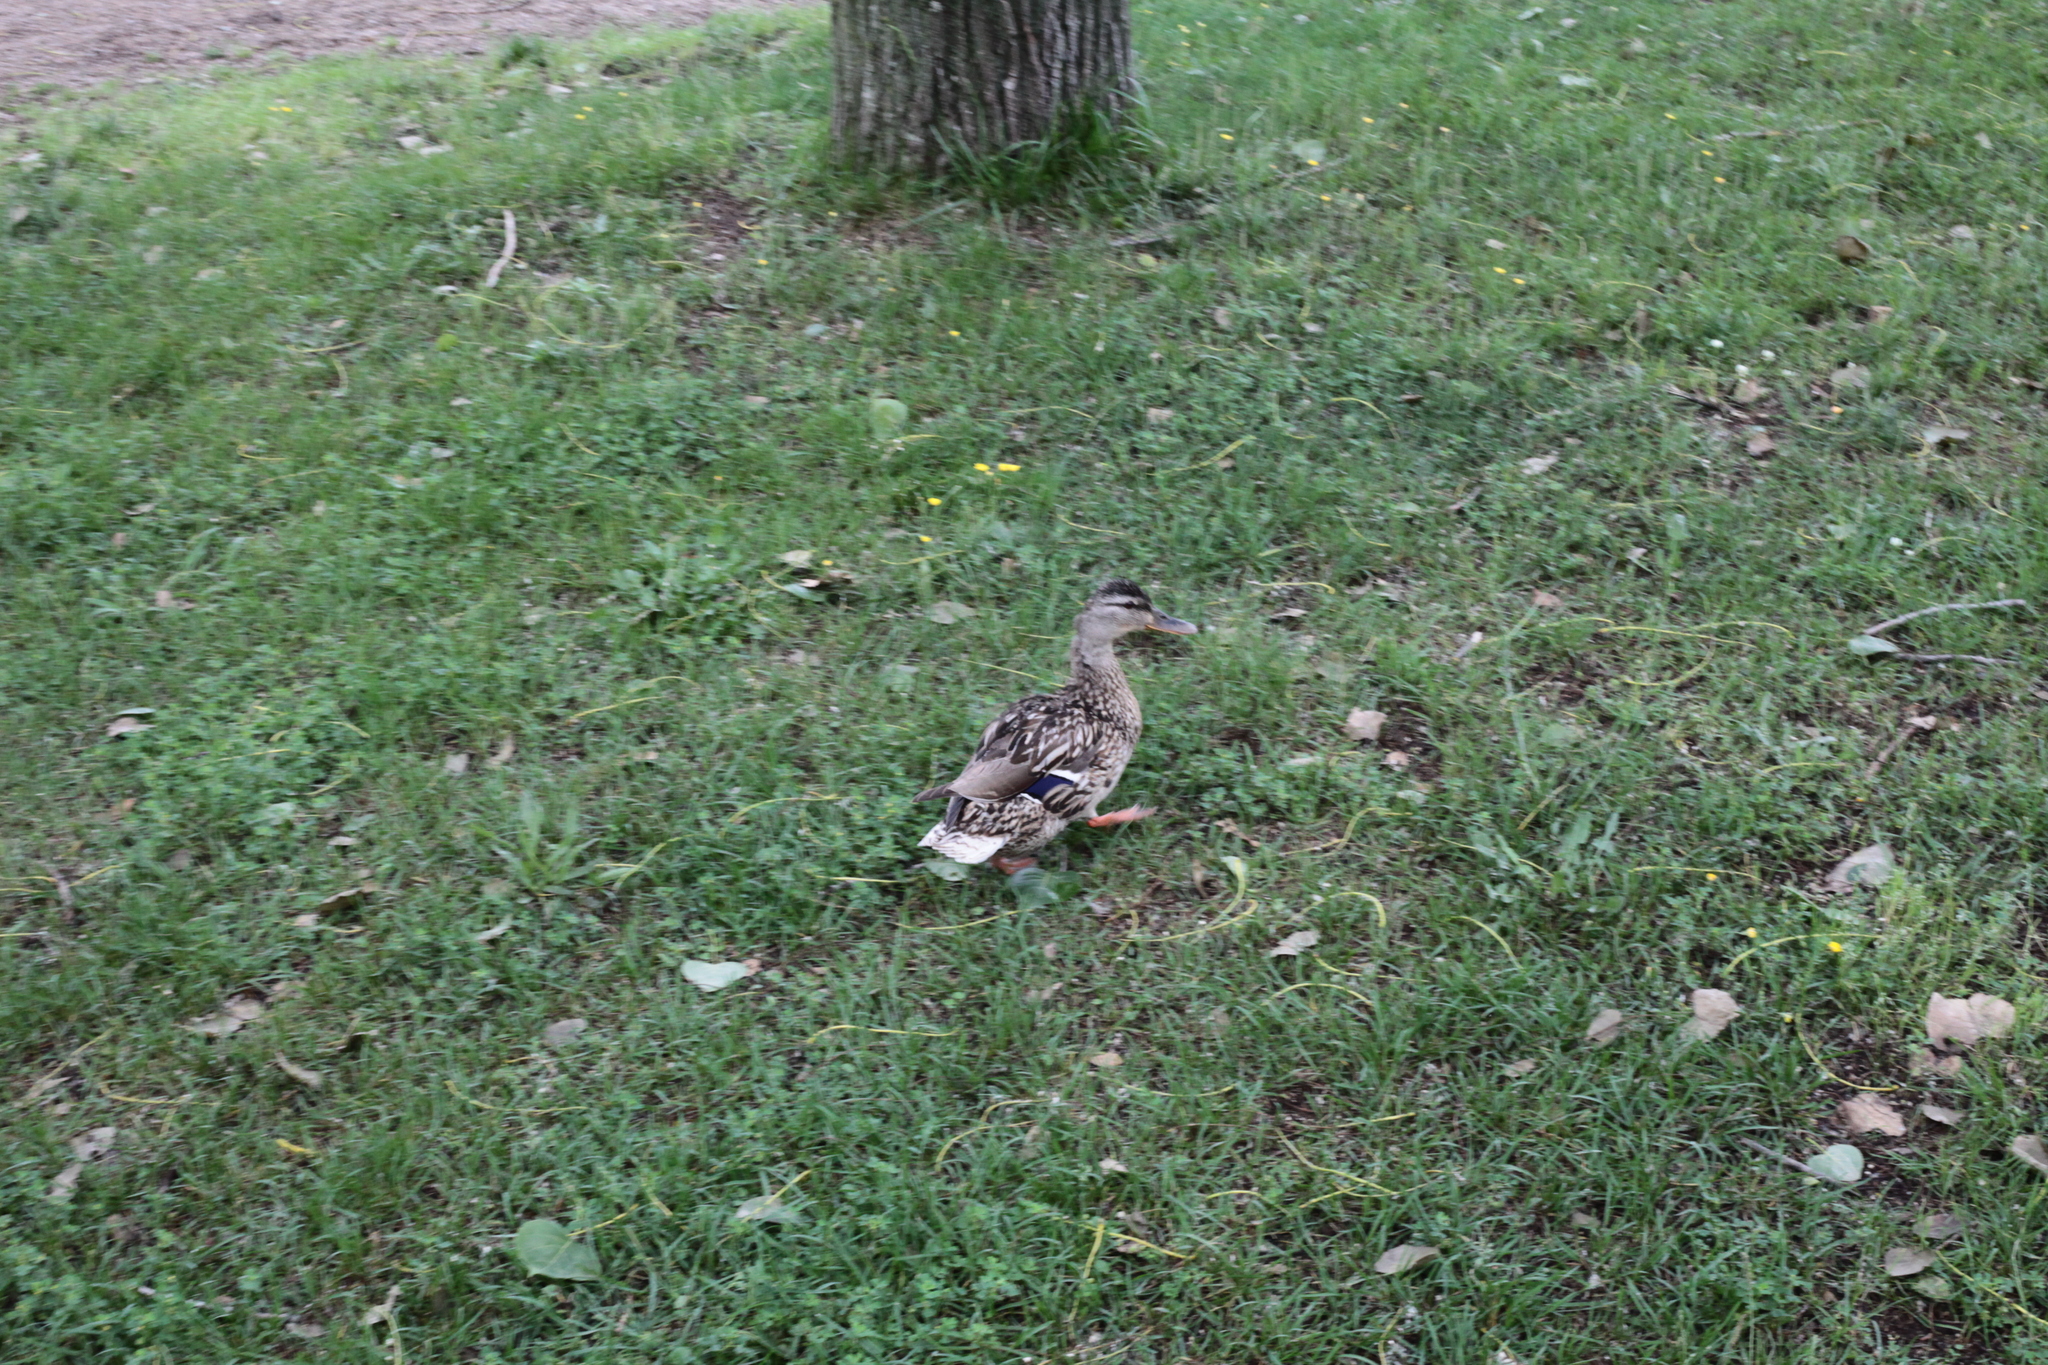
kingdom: Animalia
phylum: Chordata
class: Aves
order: Anseriformes
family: Anatidae
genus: Anas
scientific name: Anas platyrhynchos
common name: Mallard
